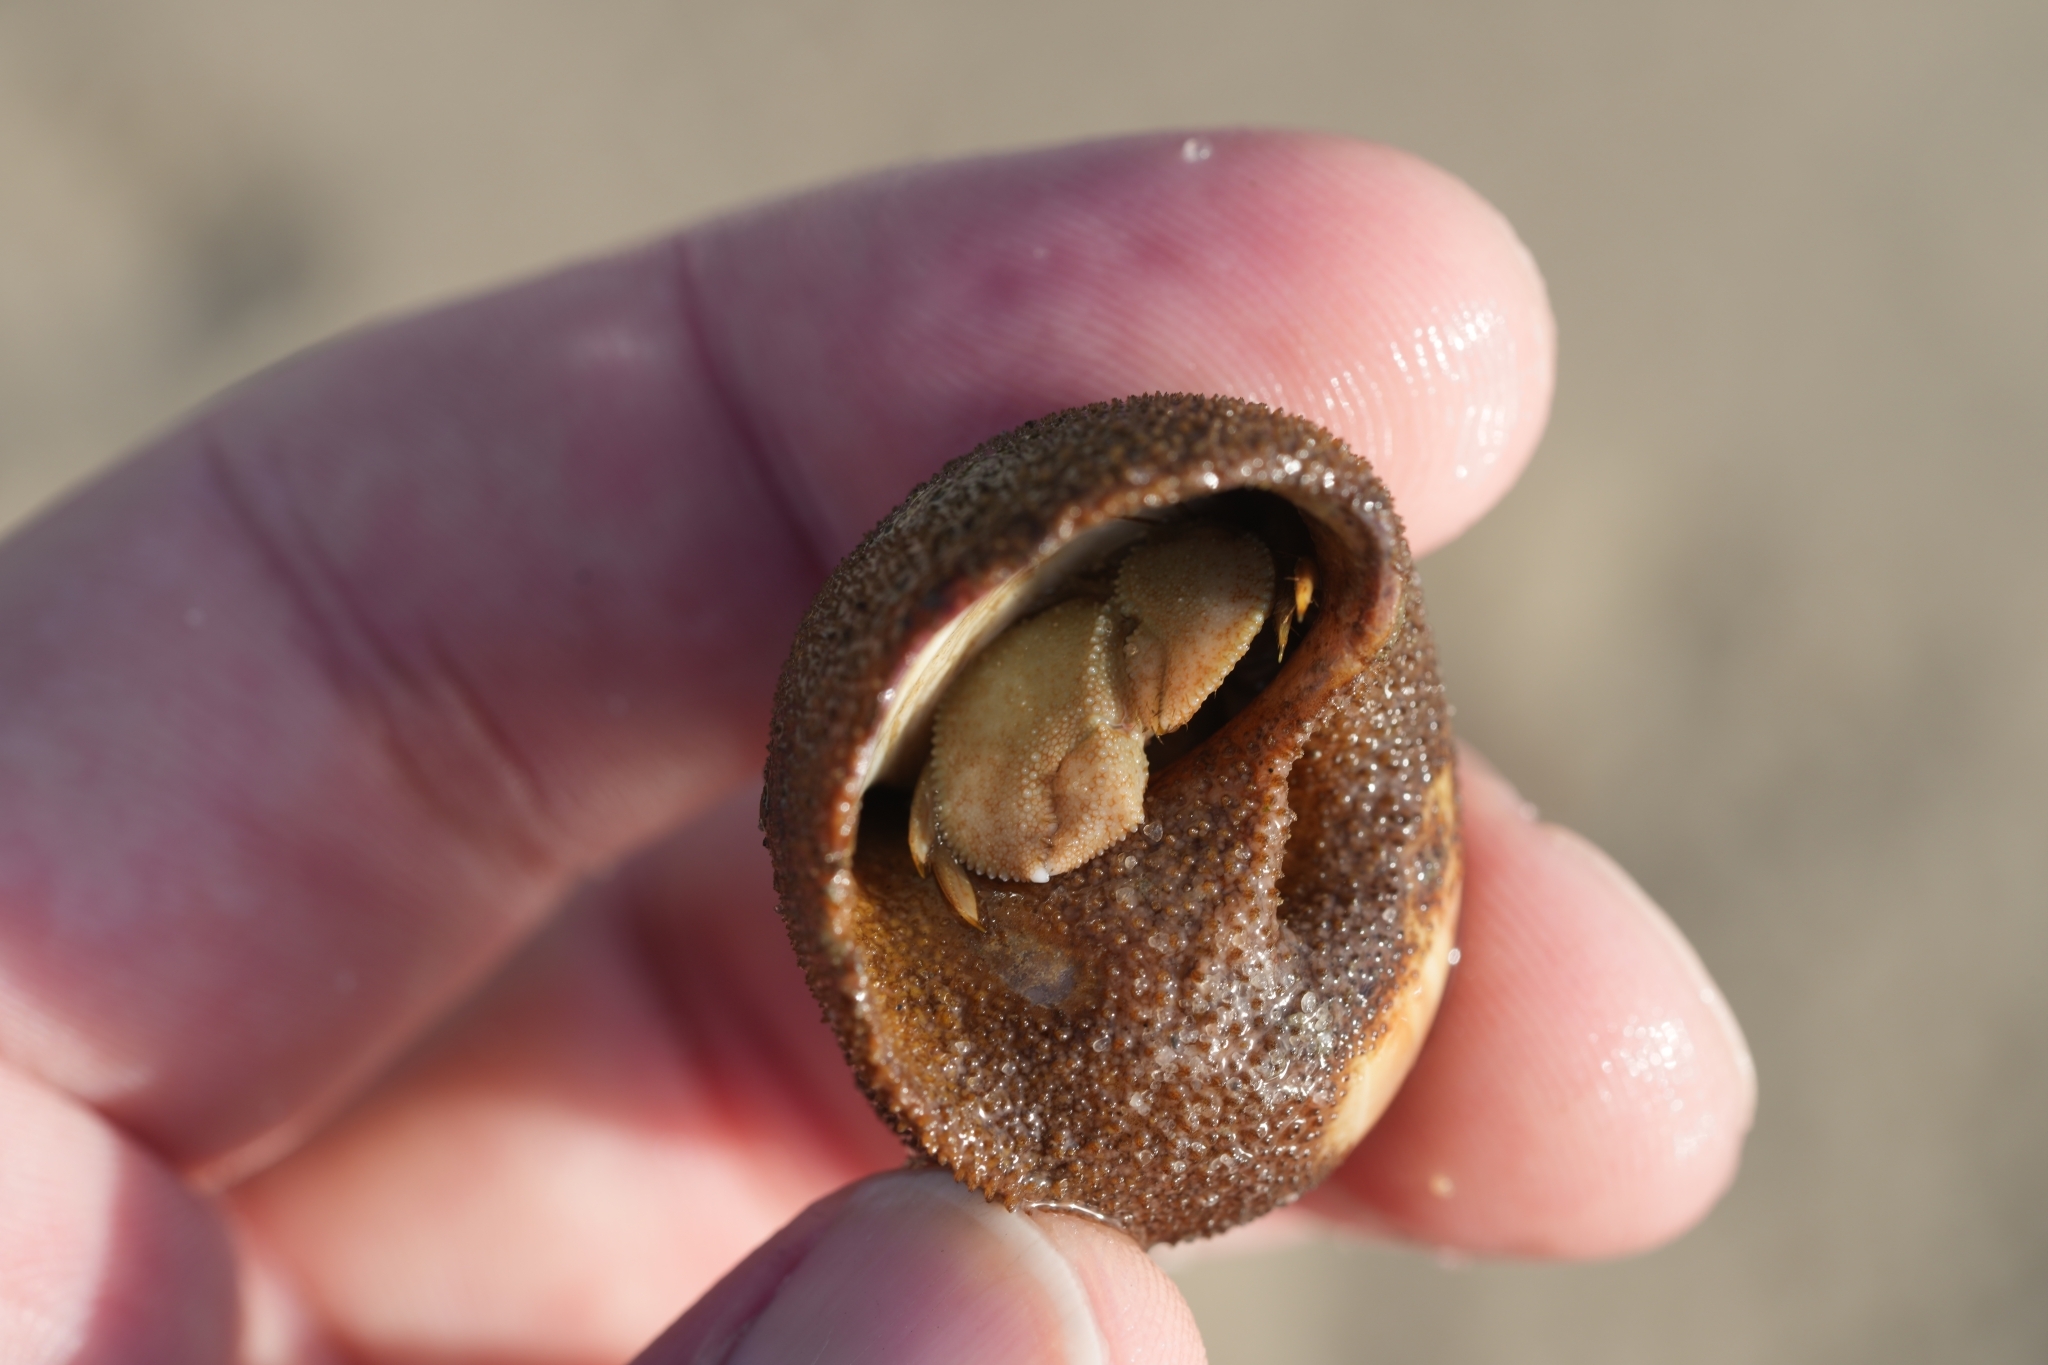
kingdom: Animalia
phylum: Arthropoda
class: Malacostraca
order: Decapoda
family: Paguridae
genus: Pagurus
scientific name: Pagurus pollicaris
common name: Flatclaw hermit
